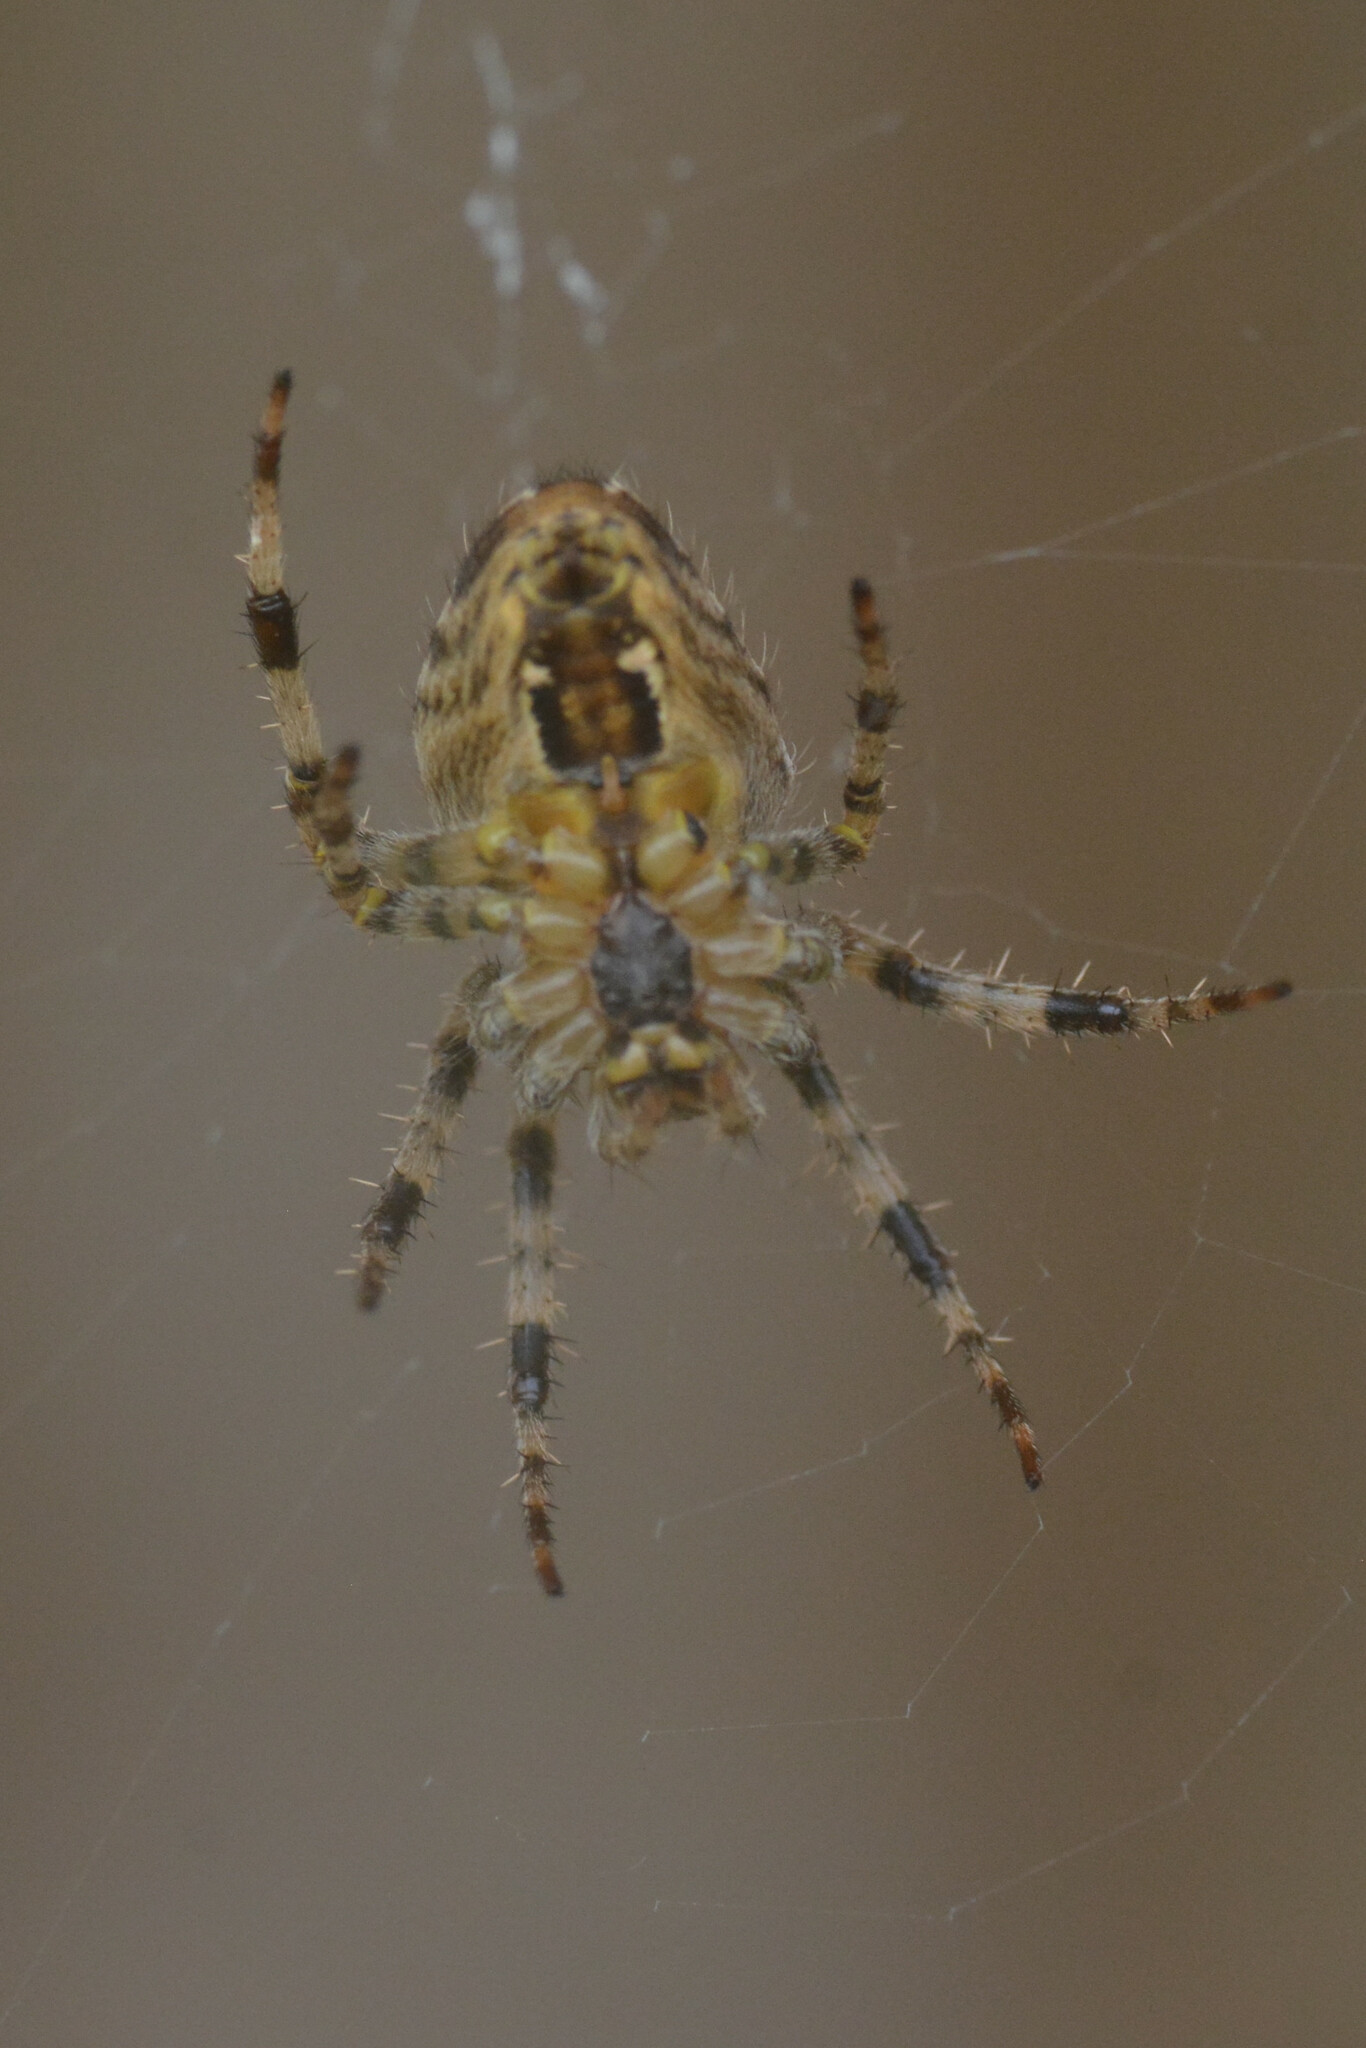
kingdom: Animalia
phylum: Arthropoda
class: Arachnida
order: Araneae
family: Araneidae
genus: Araneus
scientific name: Araneus diadematus
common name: Cross orbweaver
